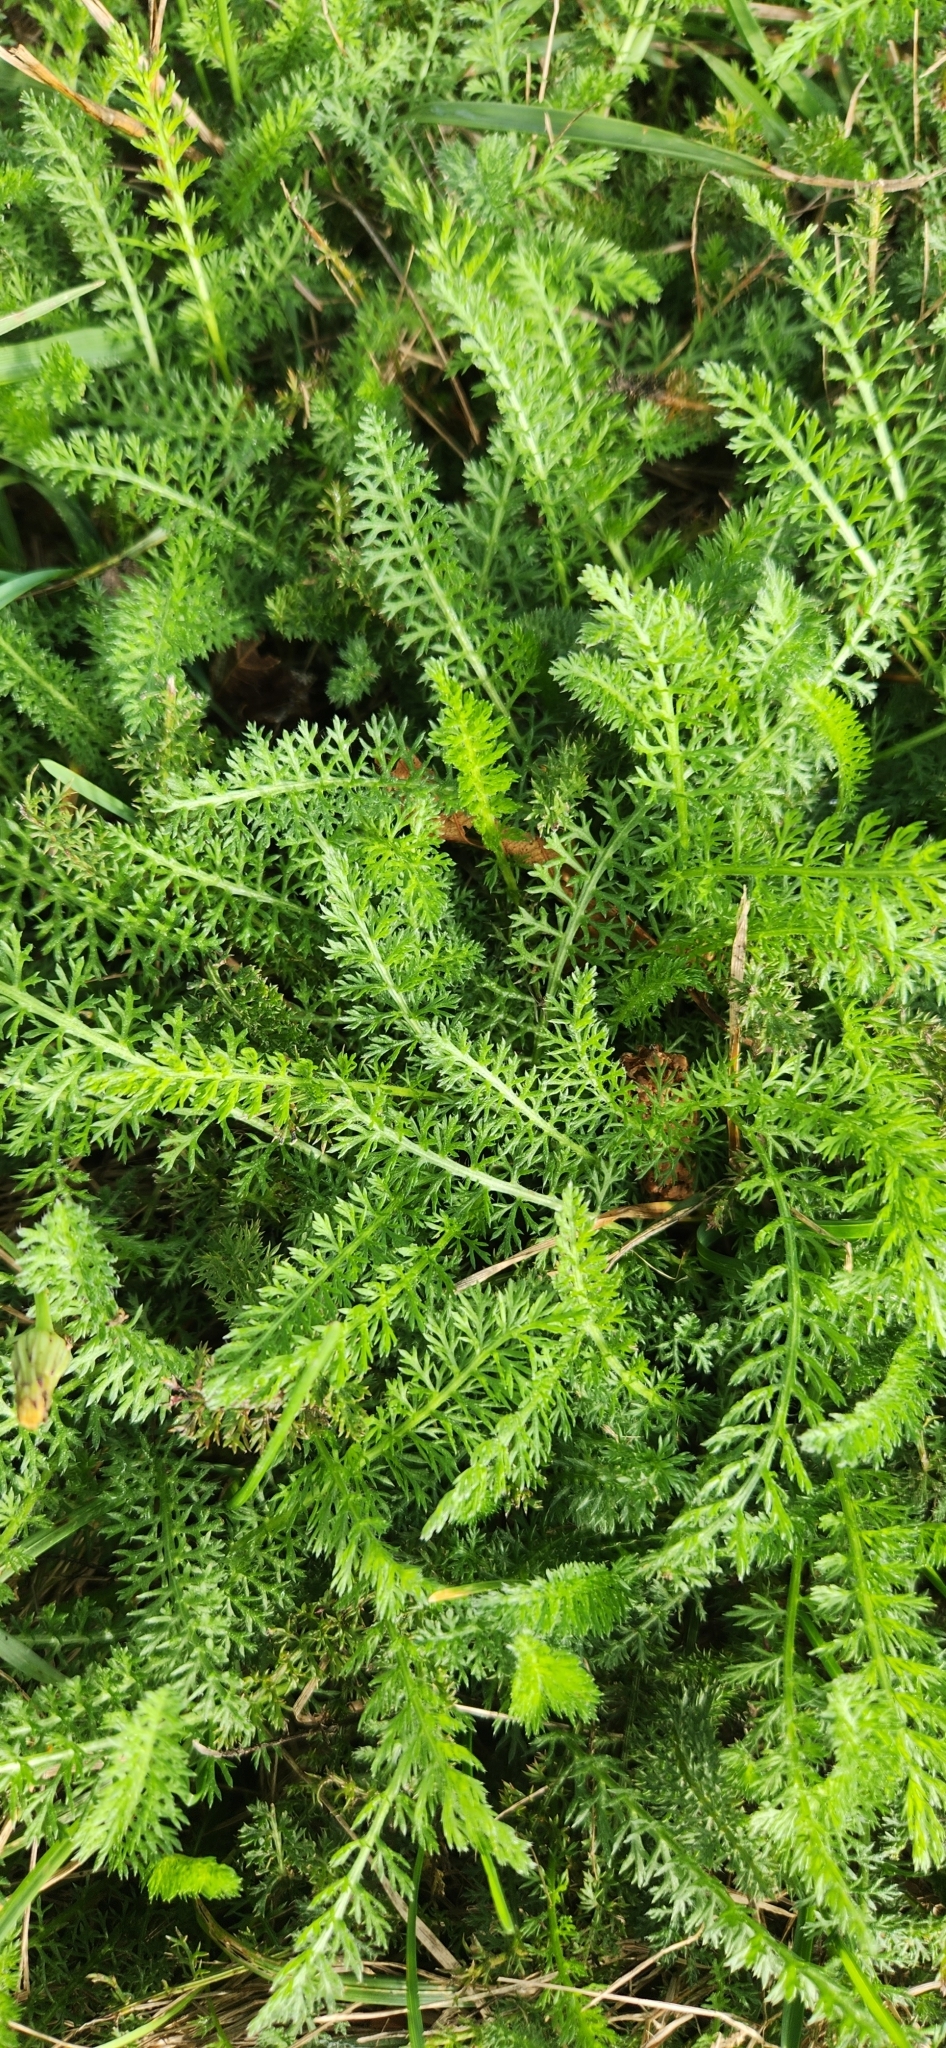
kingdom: Plantae
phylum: Tracheophyta
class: Magnoliopsida
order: Asterales
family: Asteraceae
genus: Achillea
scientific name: Achillea millefolium
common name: Yarrow
